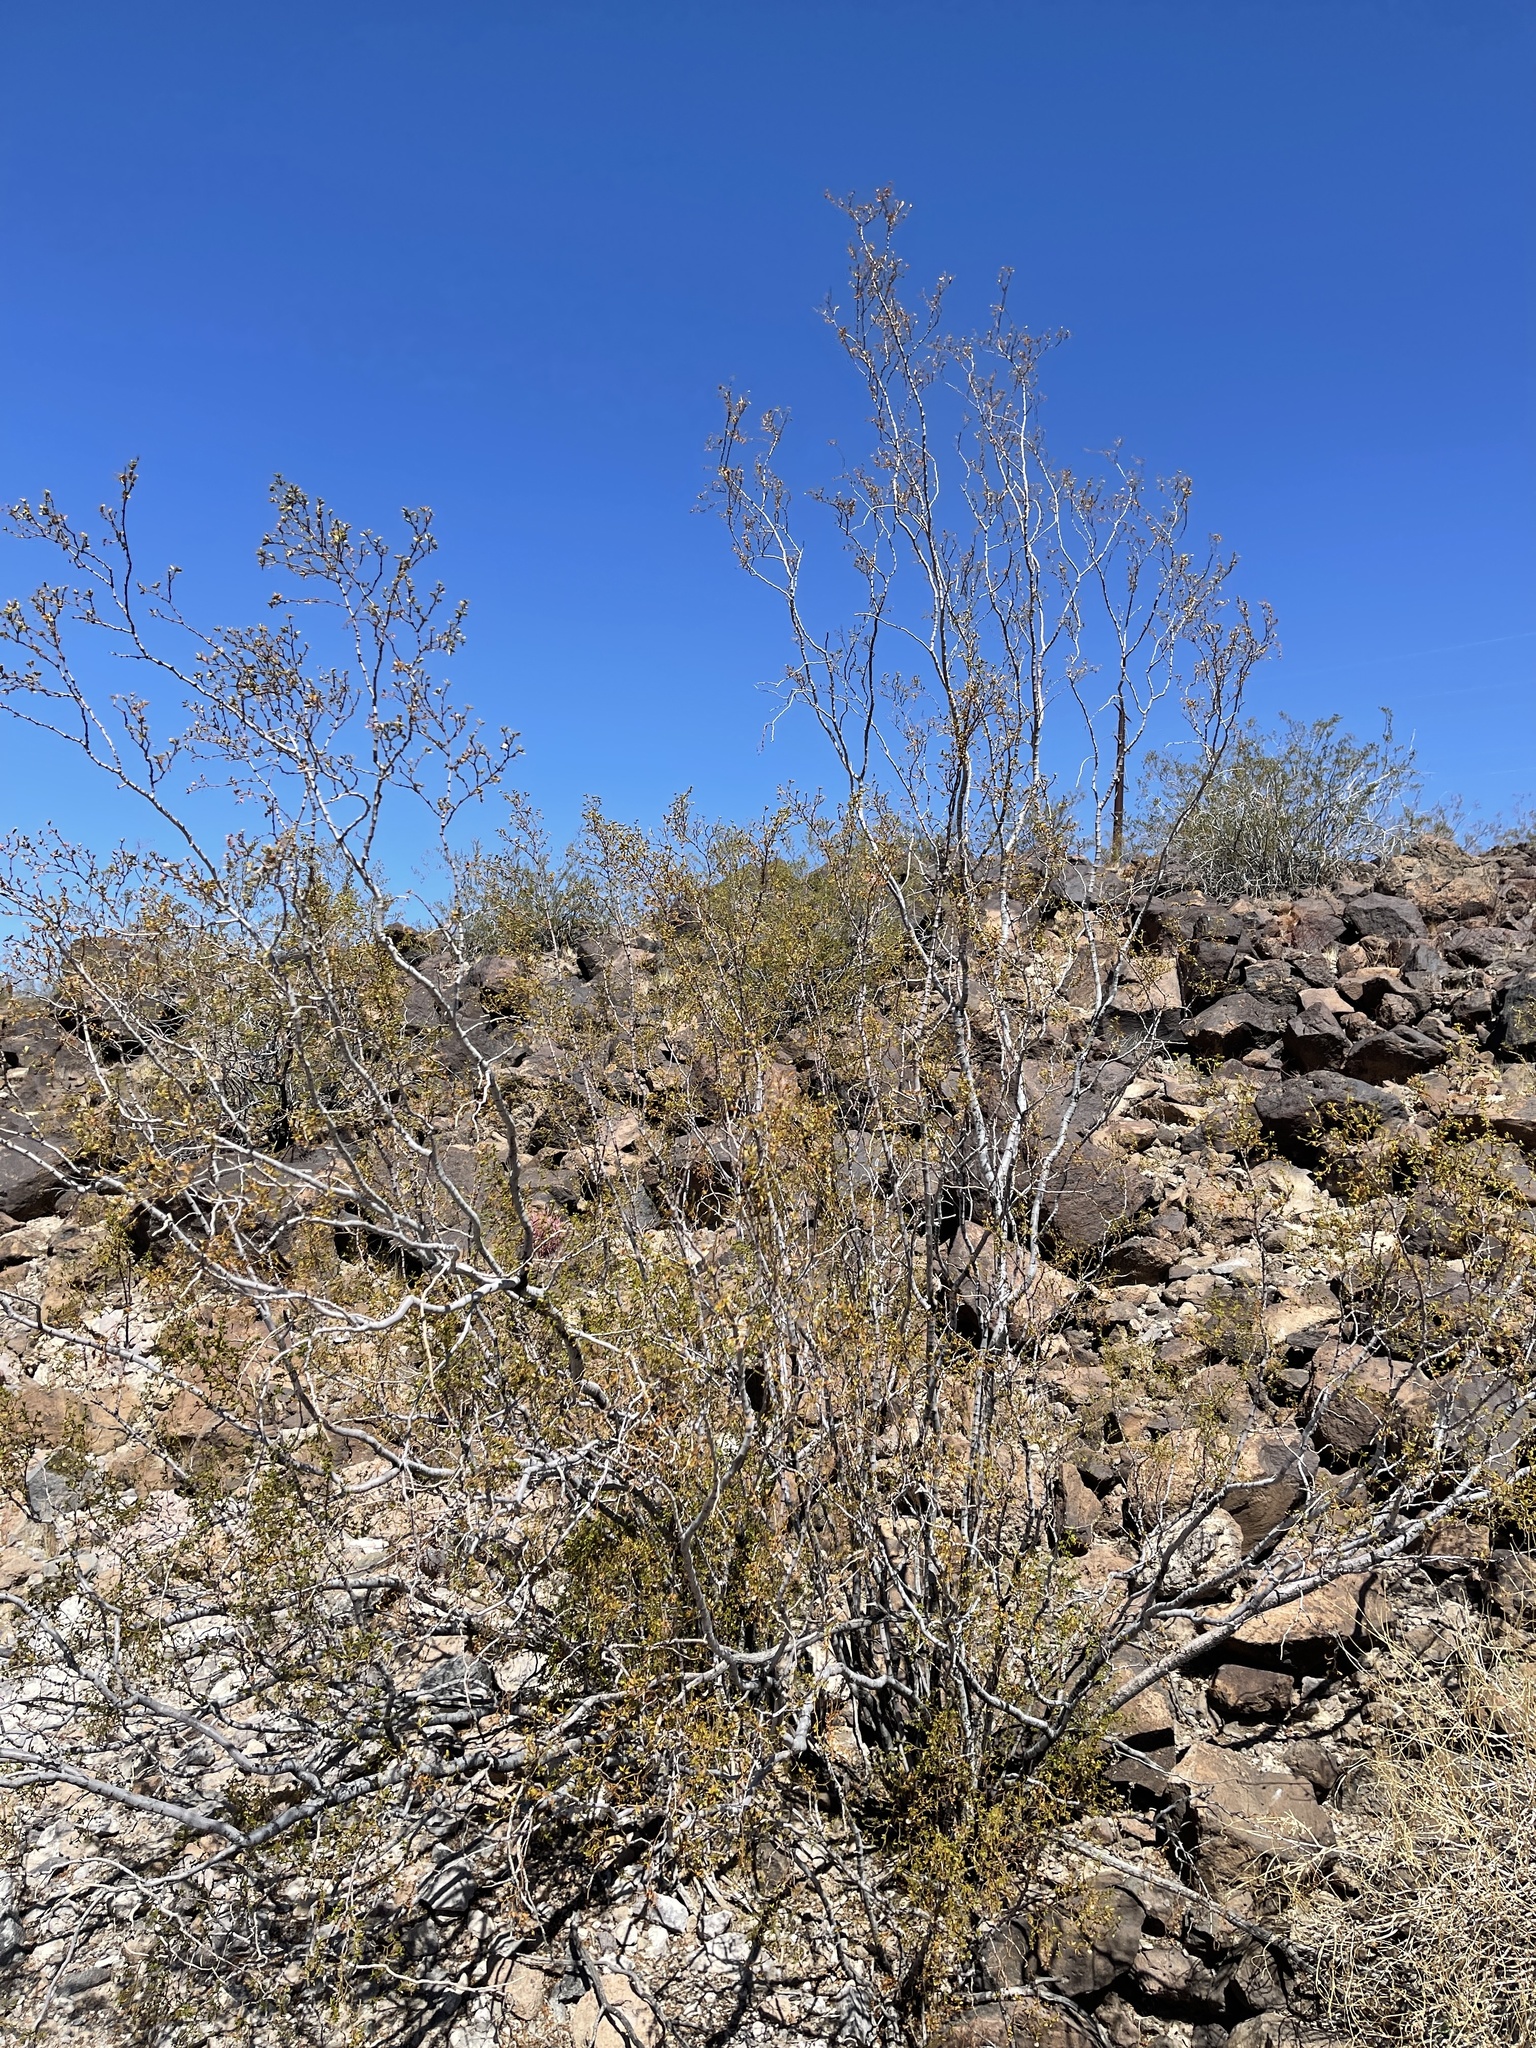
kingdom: Plantae
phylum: Tracheophyta
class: Magnoliopsida
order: Zygophyllales
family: Zygophyllaceae
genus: Larrea
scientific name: Larrea tridentata
